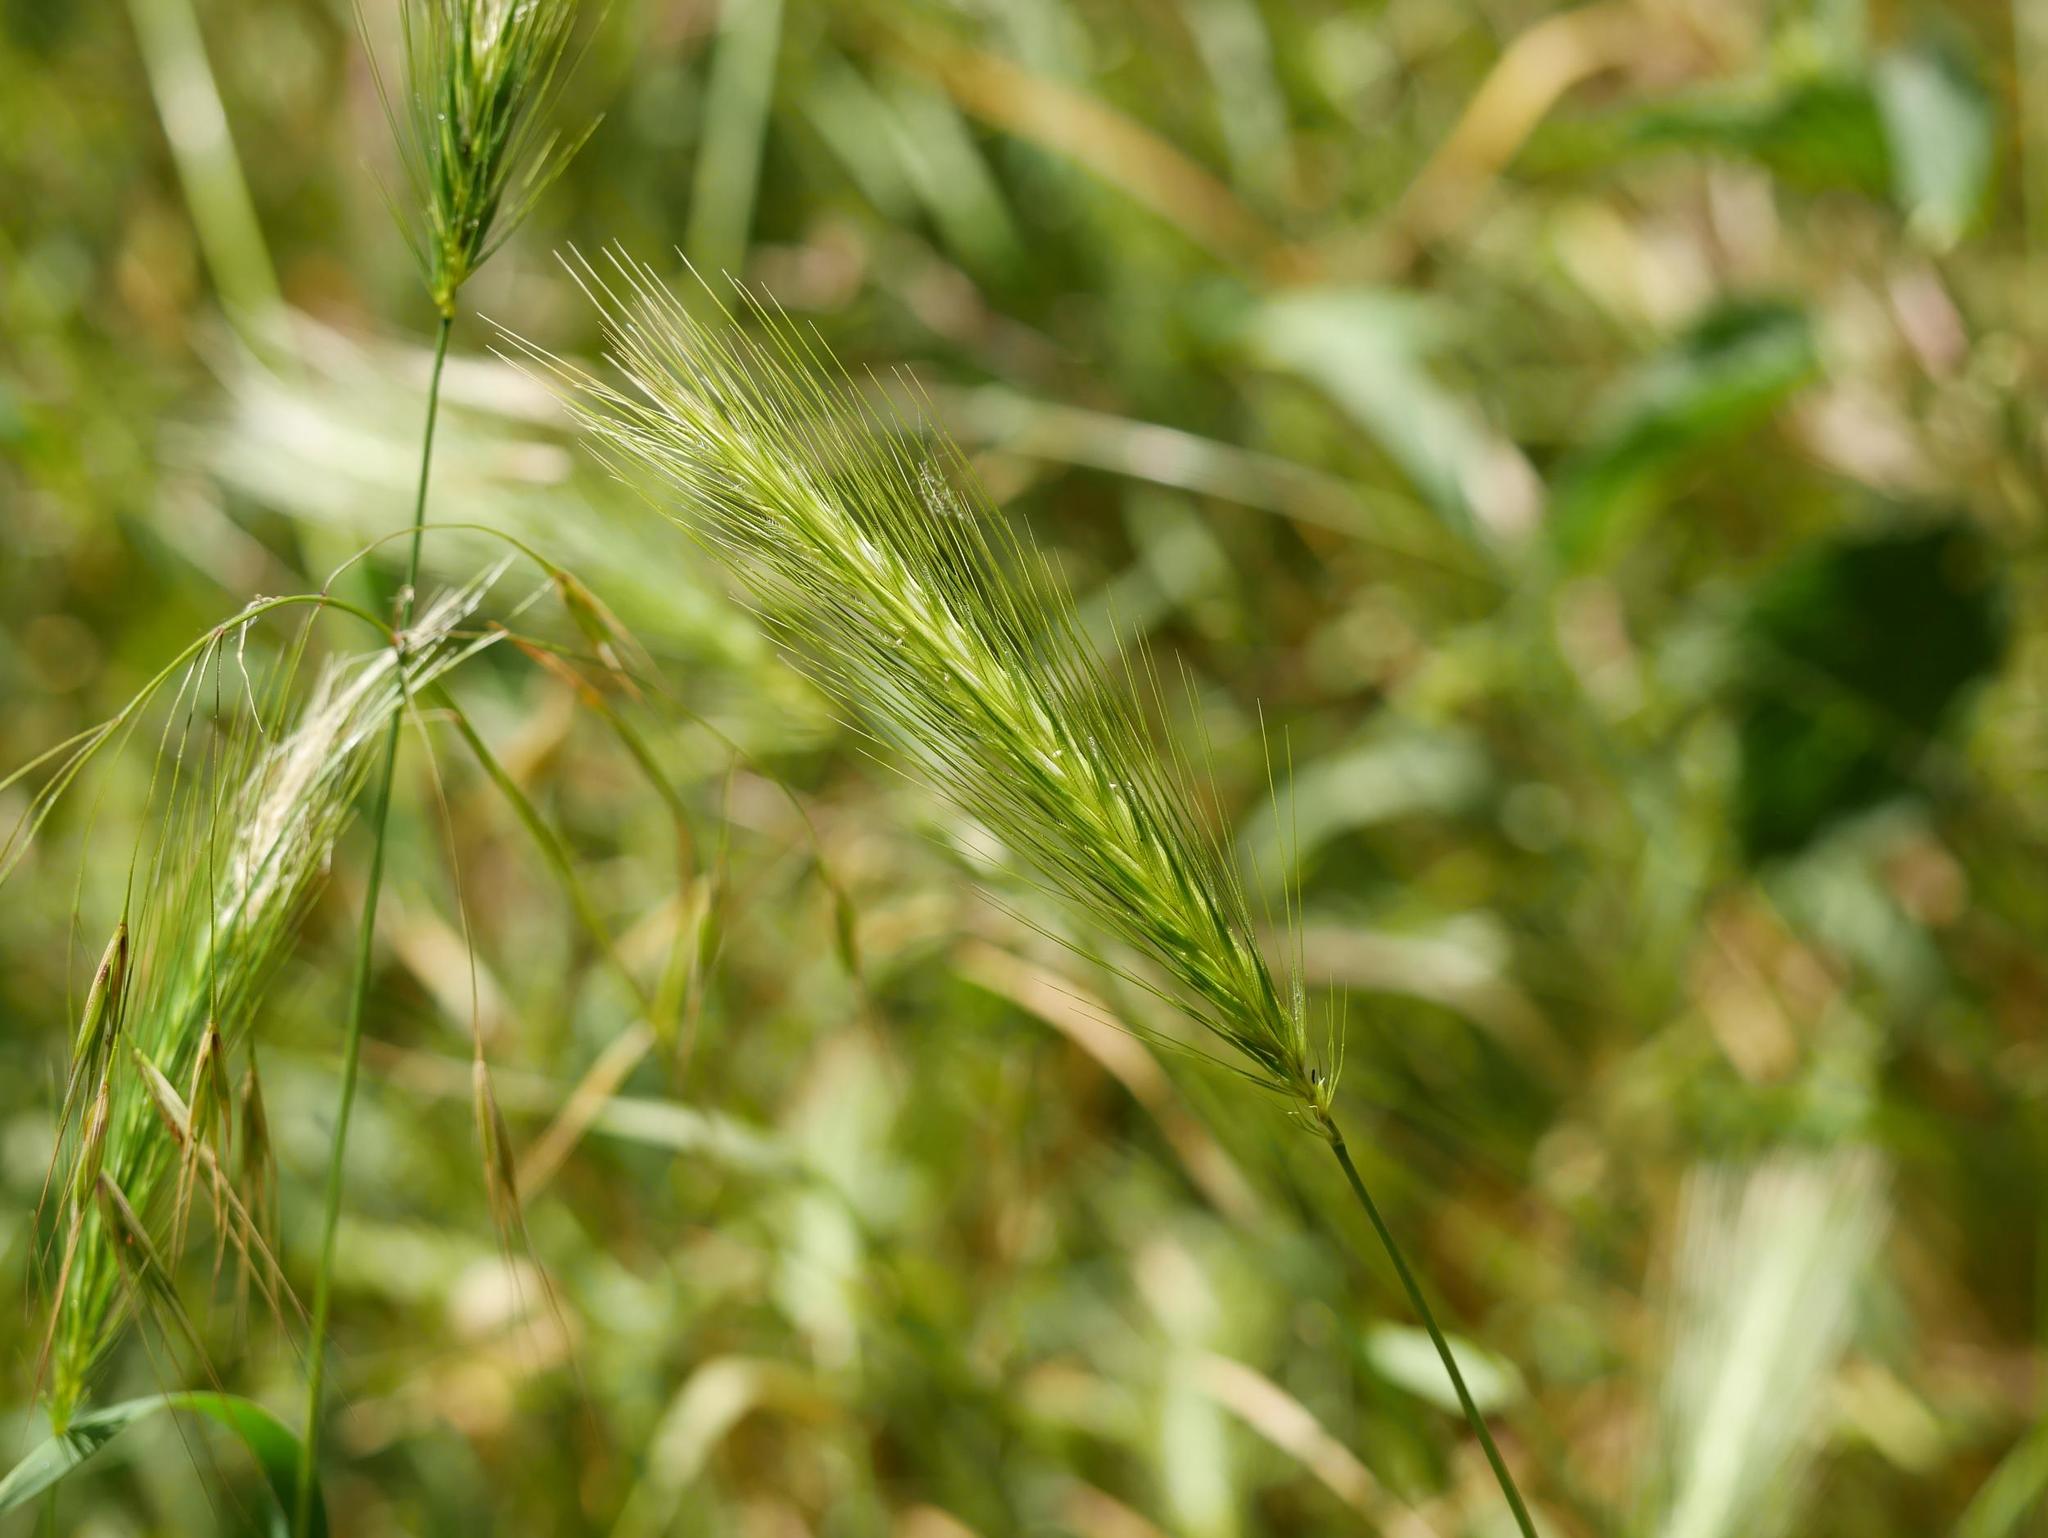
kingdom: Plantae
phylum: Tracheophyta
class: Liliopsida
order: Poales
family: Poaceae
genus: Hordeum
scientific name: Hordeum murinum
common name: Wall barley
